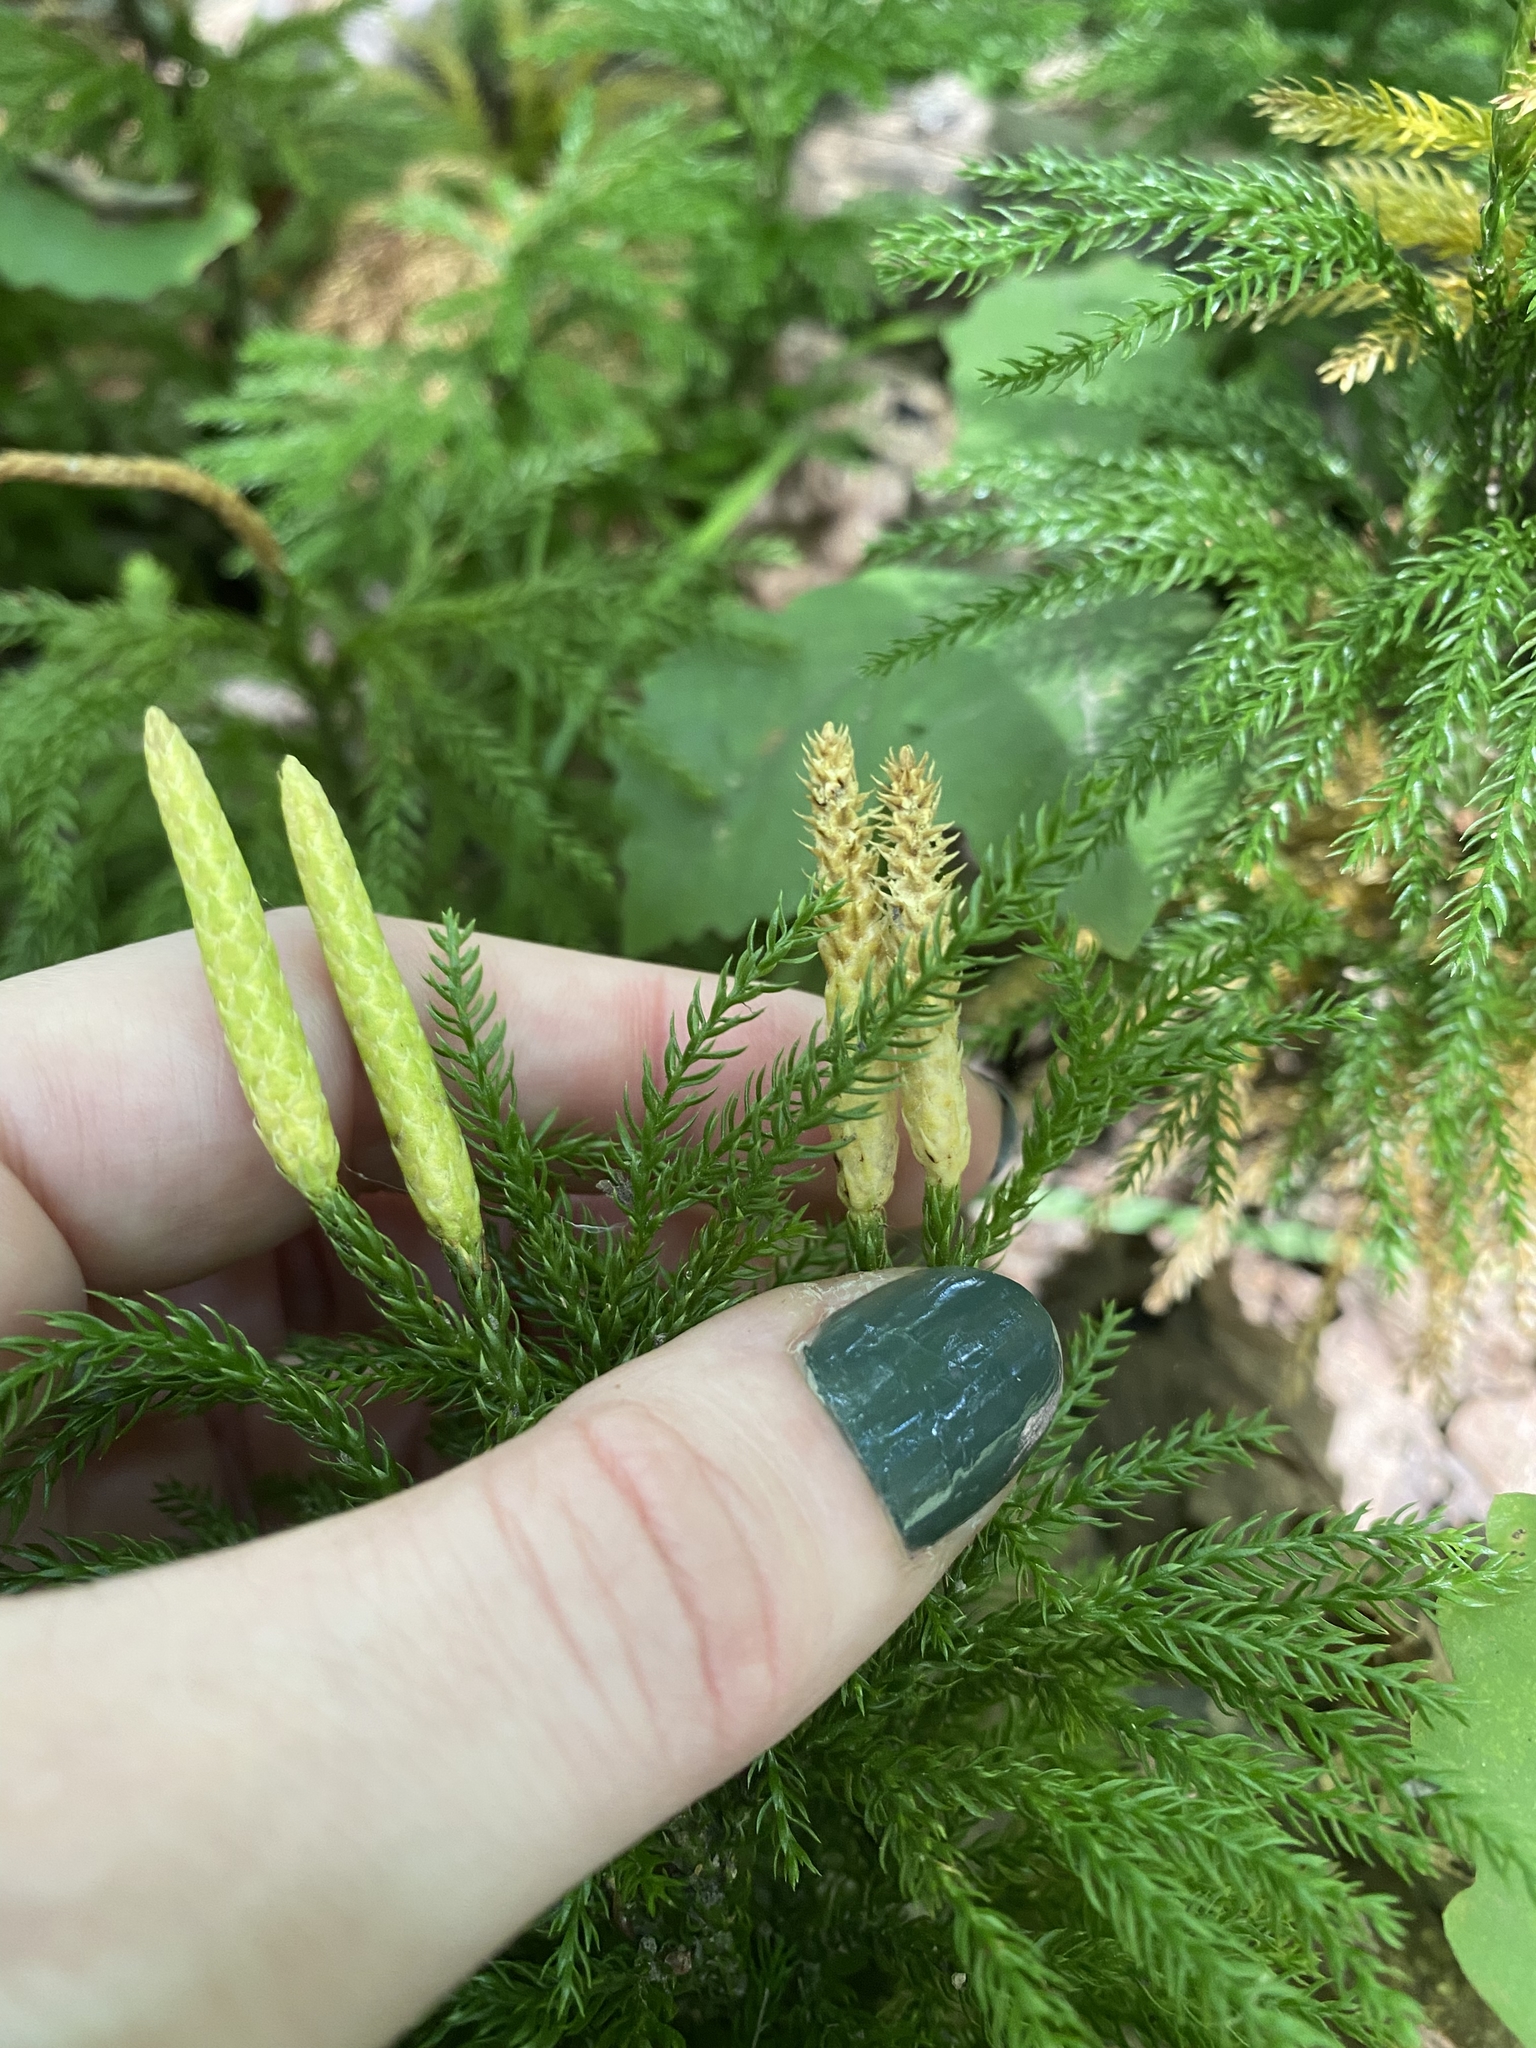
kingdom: Plantae
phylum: Tracheophyta
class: Lycopodiopsida
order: Lycopodiales
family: Lycopodiaceae
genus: Dendrolycopodium
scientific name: Dendrolycopodium hickeyi
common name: Hickey's clubmoss
